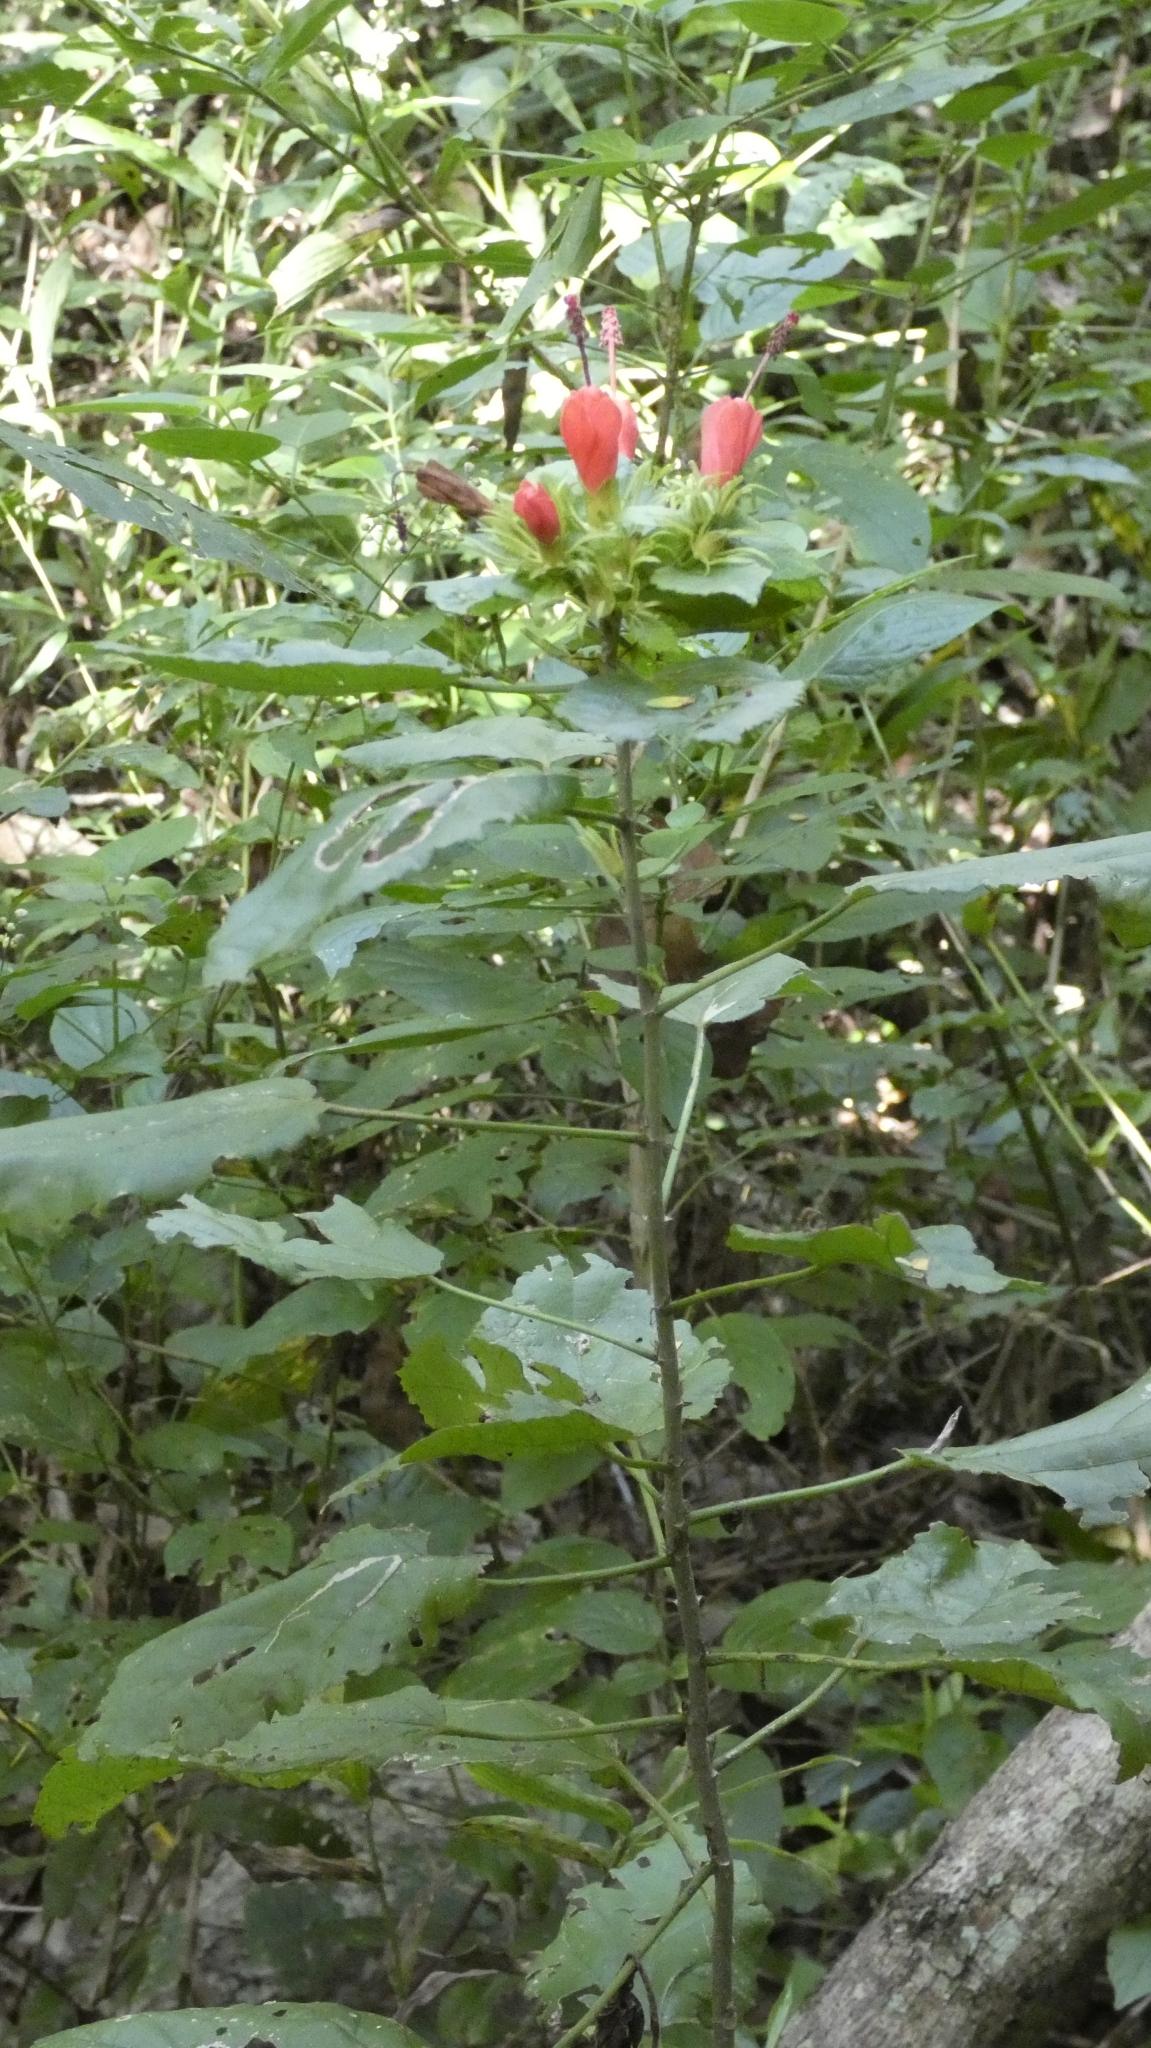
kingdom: Plantae
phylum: Tracheophyta
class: Magnoliopsida
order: Malvales
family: Malvaceae
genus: Malvaviscus
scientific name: Malvaviscus arboreus
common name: Wax mallow
